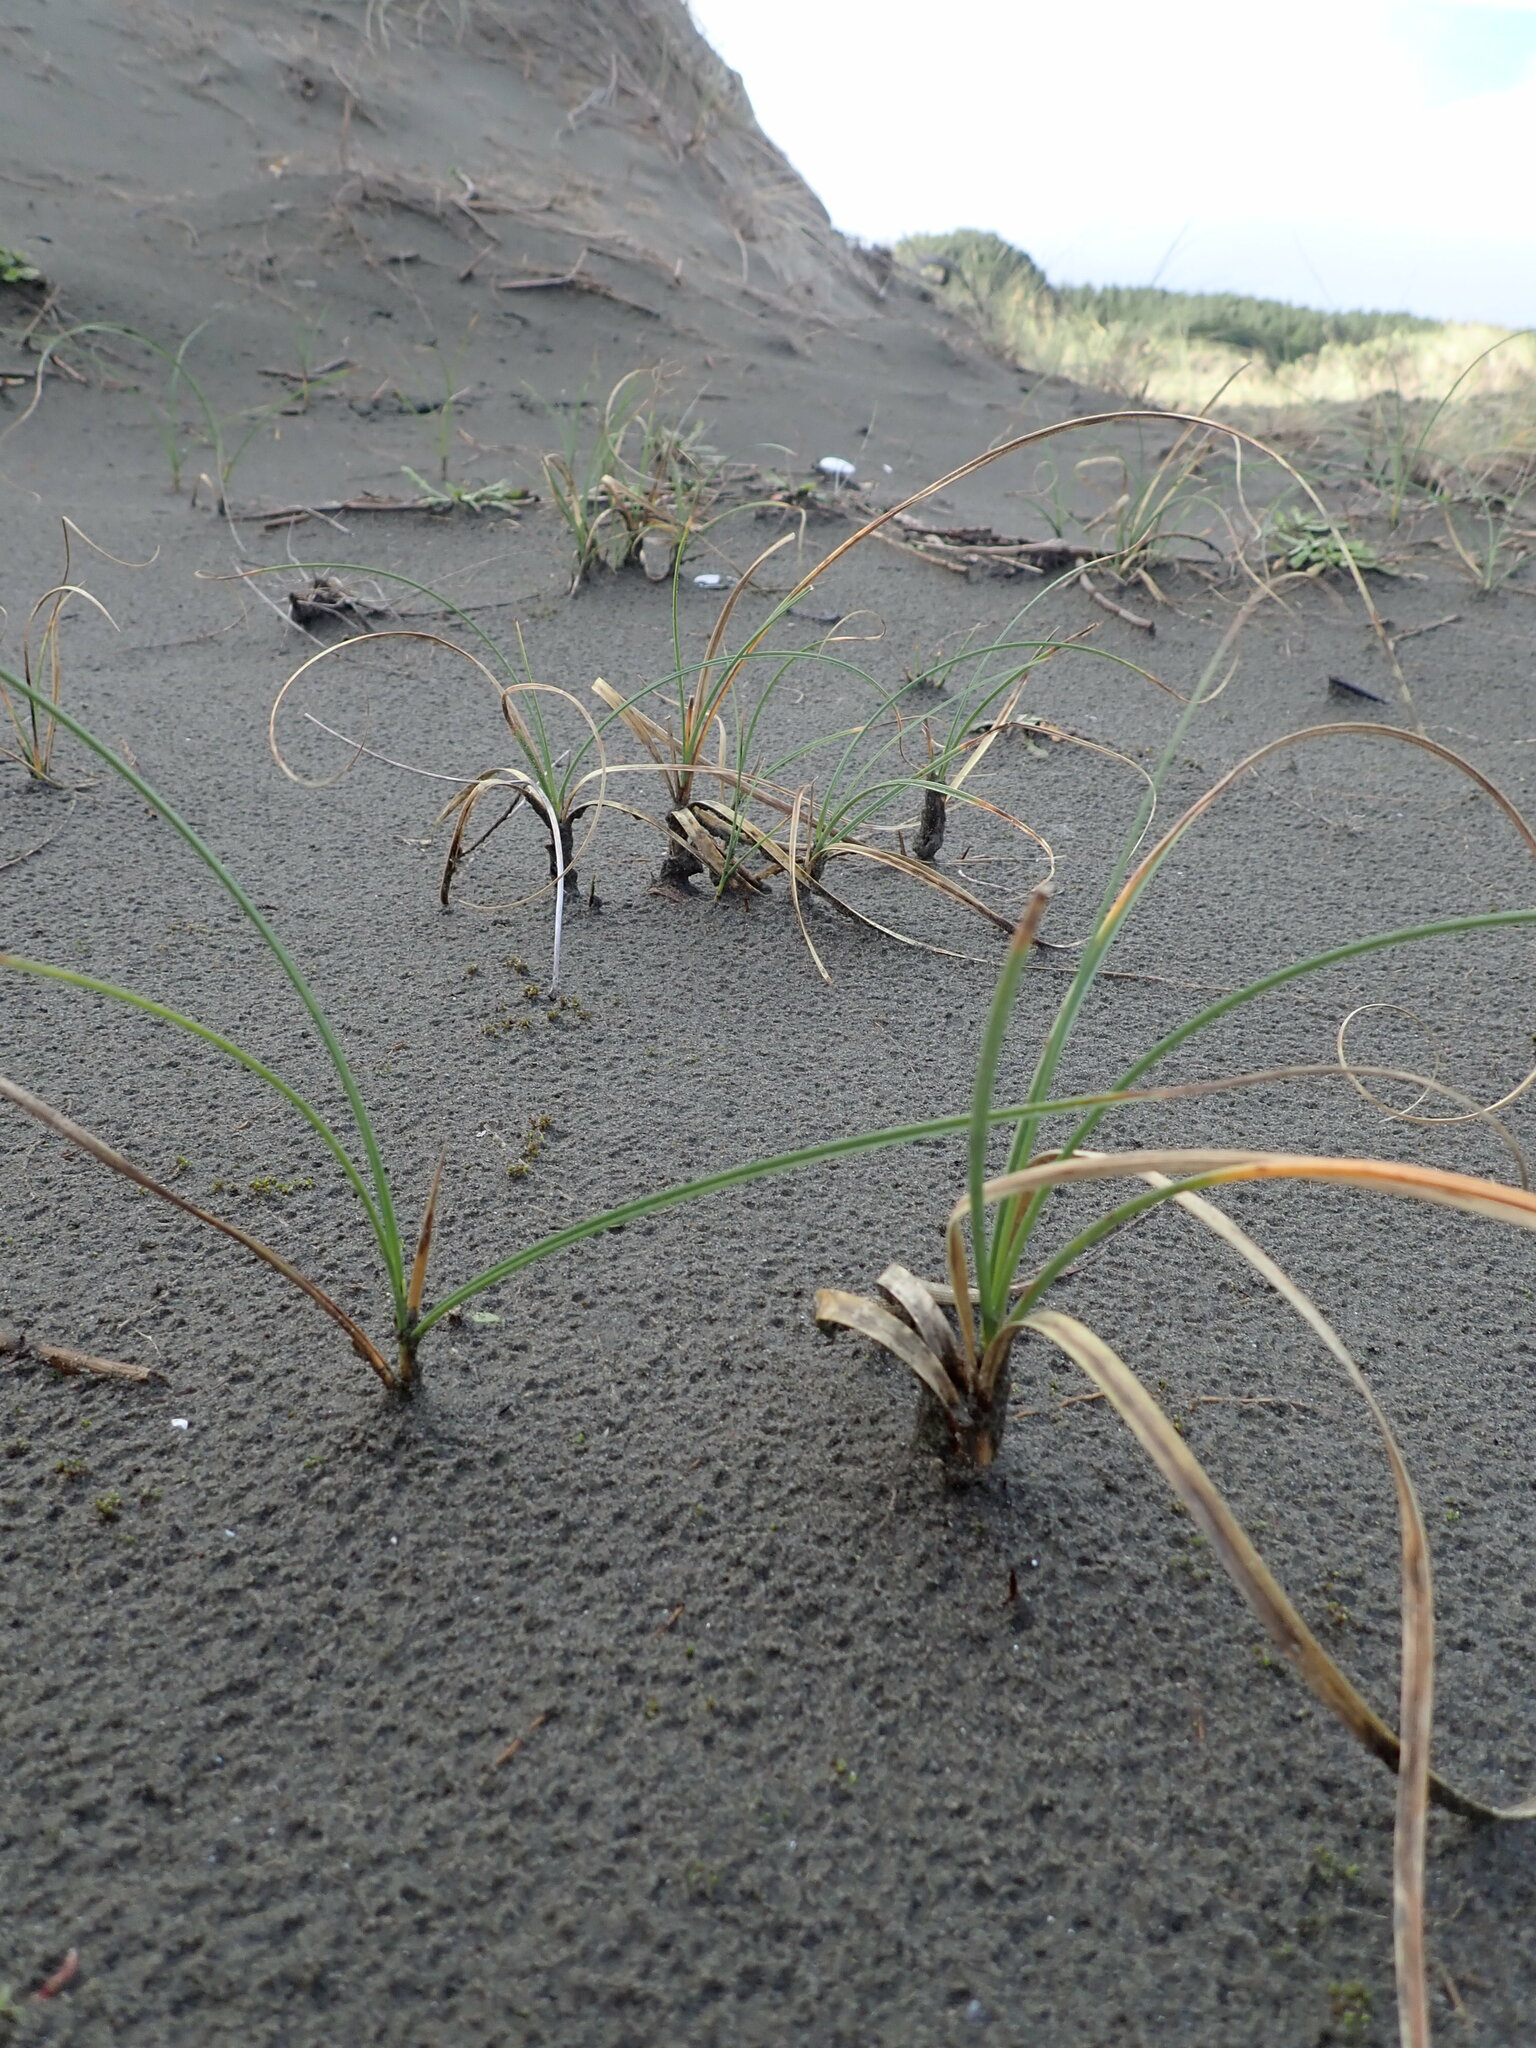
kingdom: Plantae
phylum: Tracheophyta
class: Liliopsida
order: Poales
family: Cyperaceae
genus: Carex
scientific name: Carex pumila
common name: Dwarf sedge
